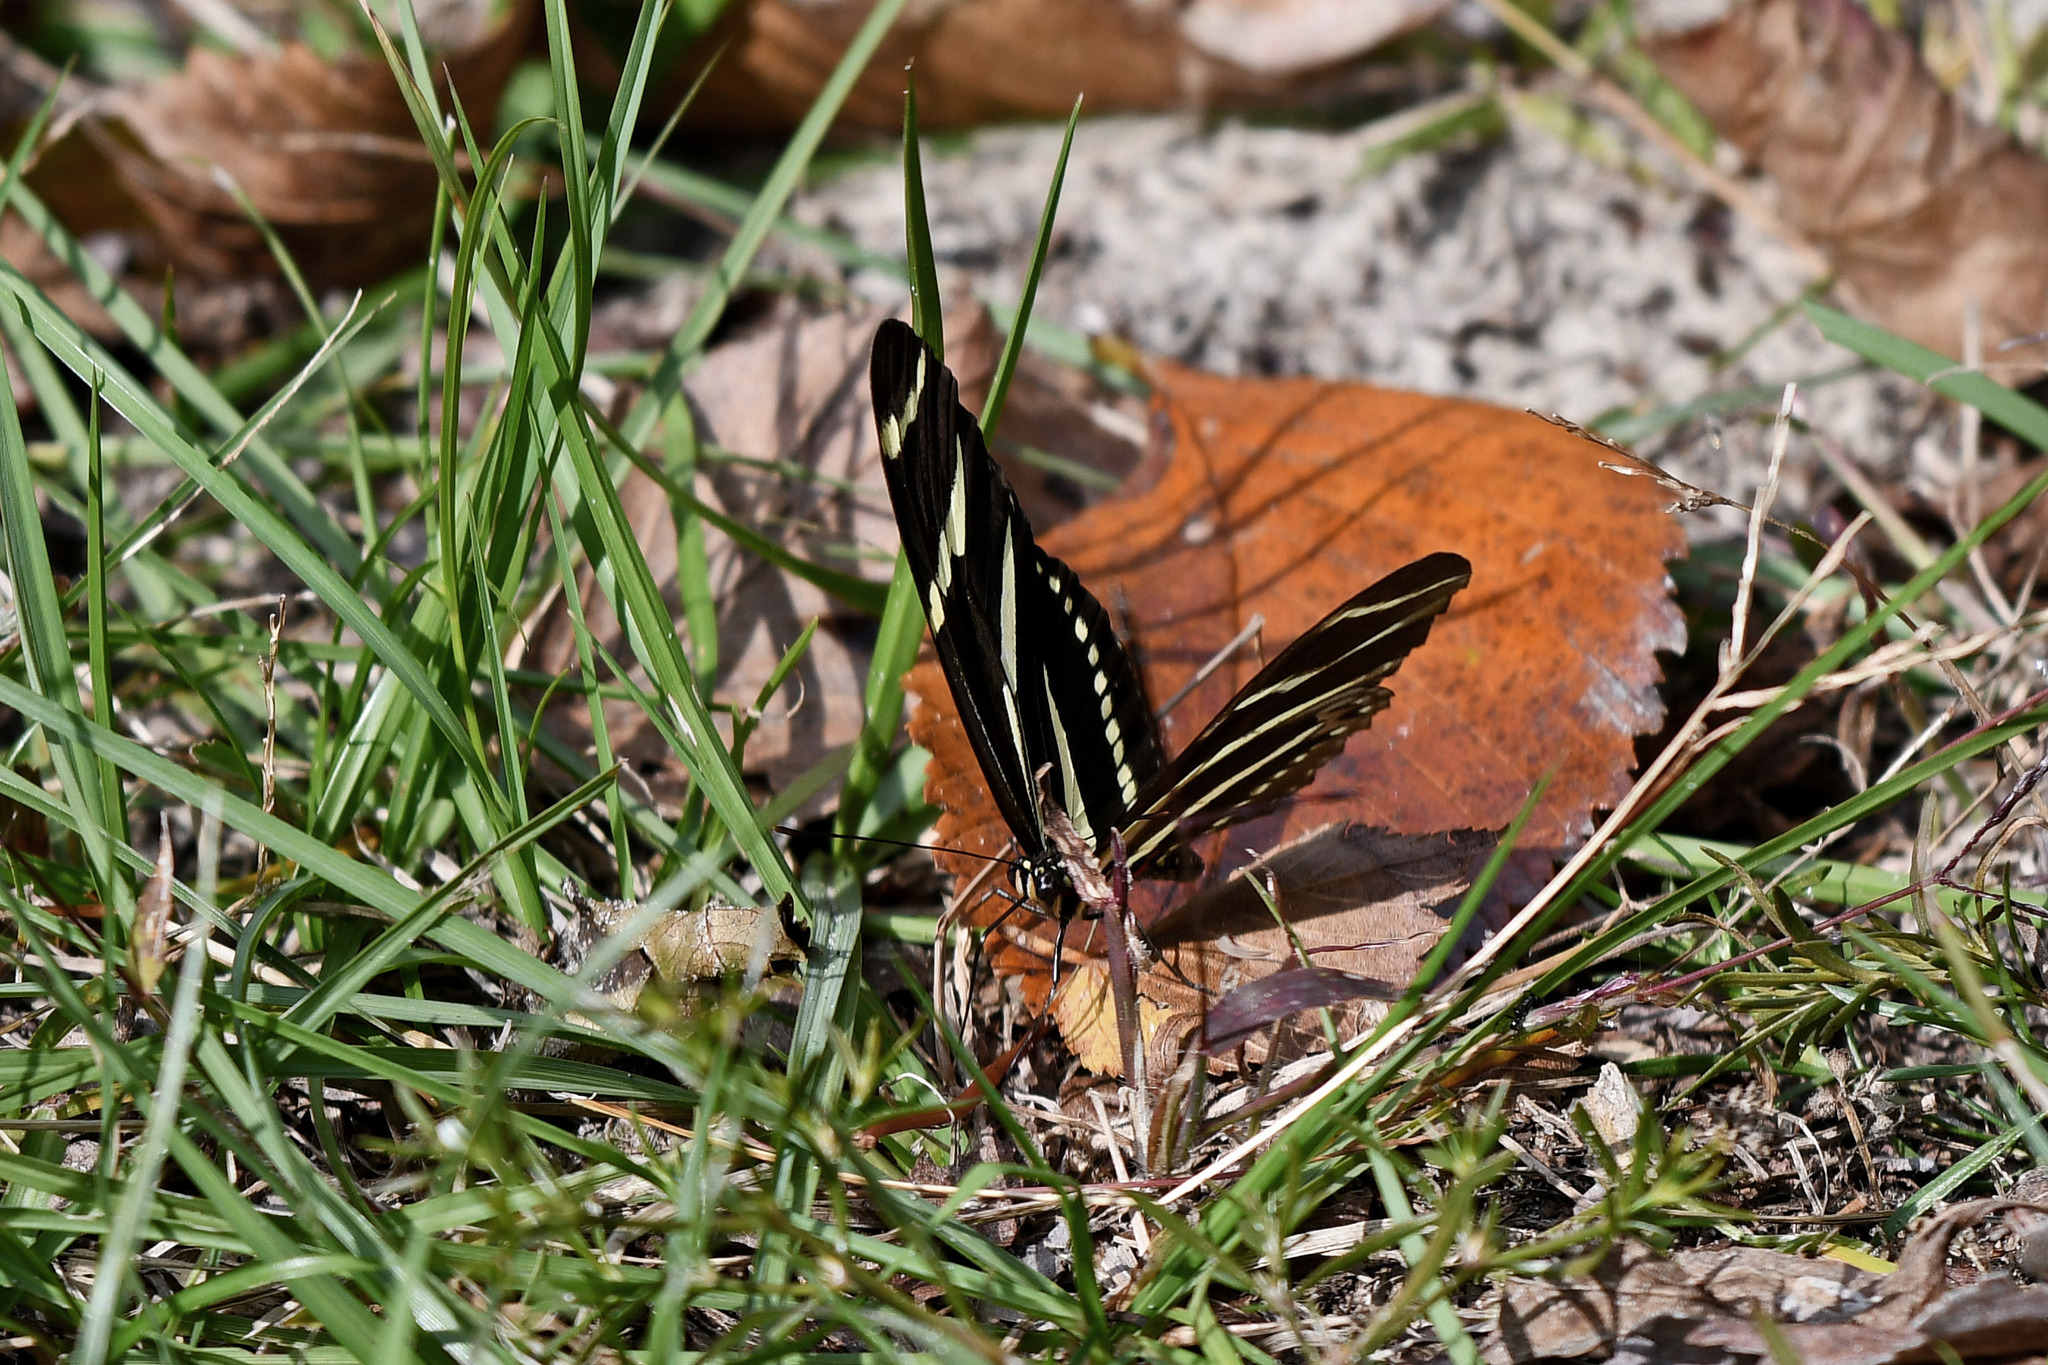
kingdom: Animalia
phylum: Arthropoda
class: Insecta
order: Lepidoptera
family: Nymphalidae
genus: Heliconius
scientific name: Heliconius charithonia
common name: Zebra long wing
